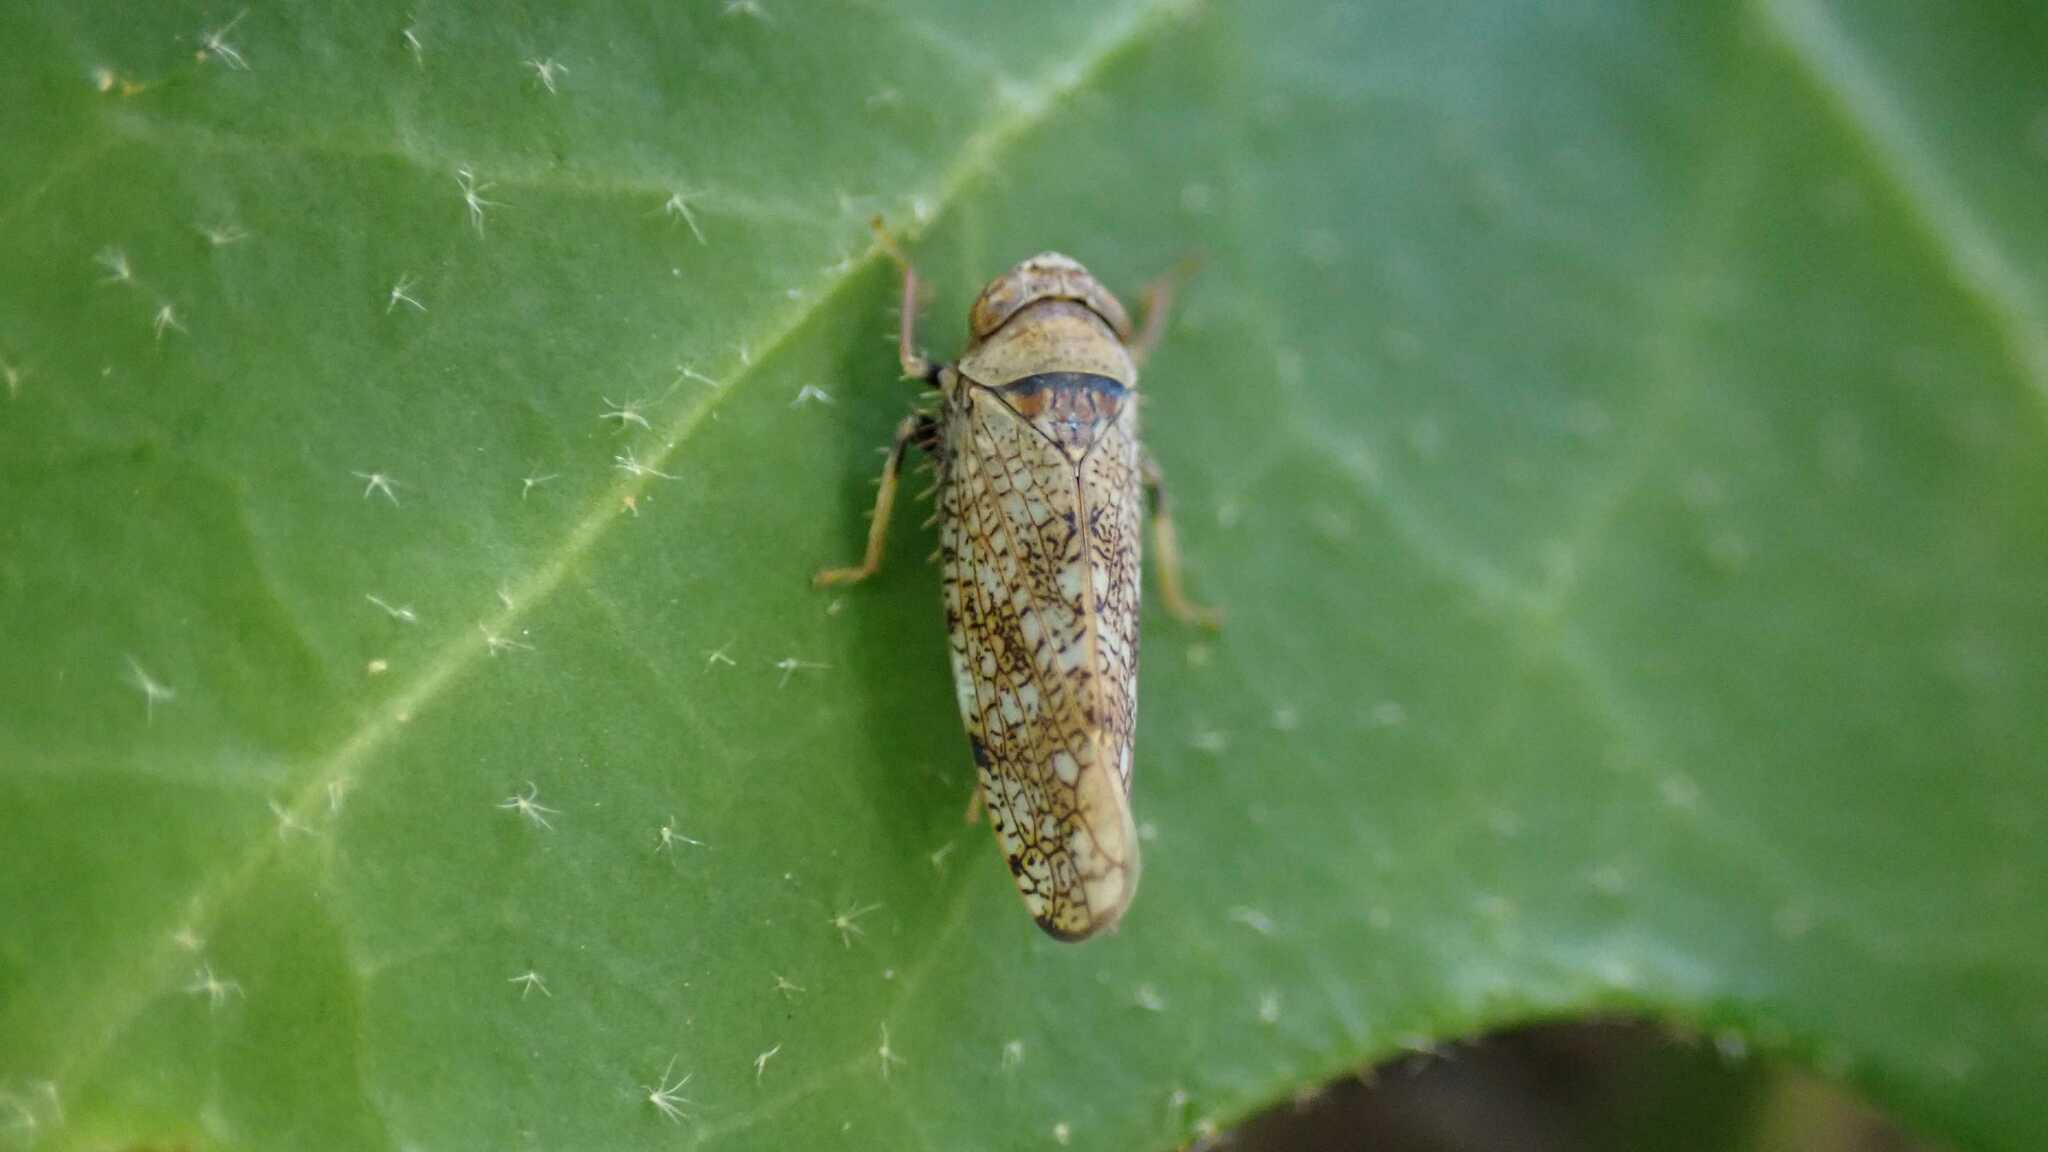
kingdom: Animalia
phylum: Arthropoda
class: Insecta
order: Hemiptera
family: Cicadellidae
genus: Orientus
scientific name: Orientus ishidae
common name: Japanese leafhopper
